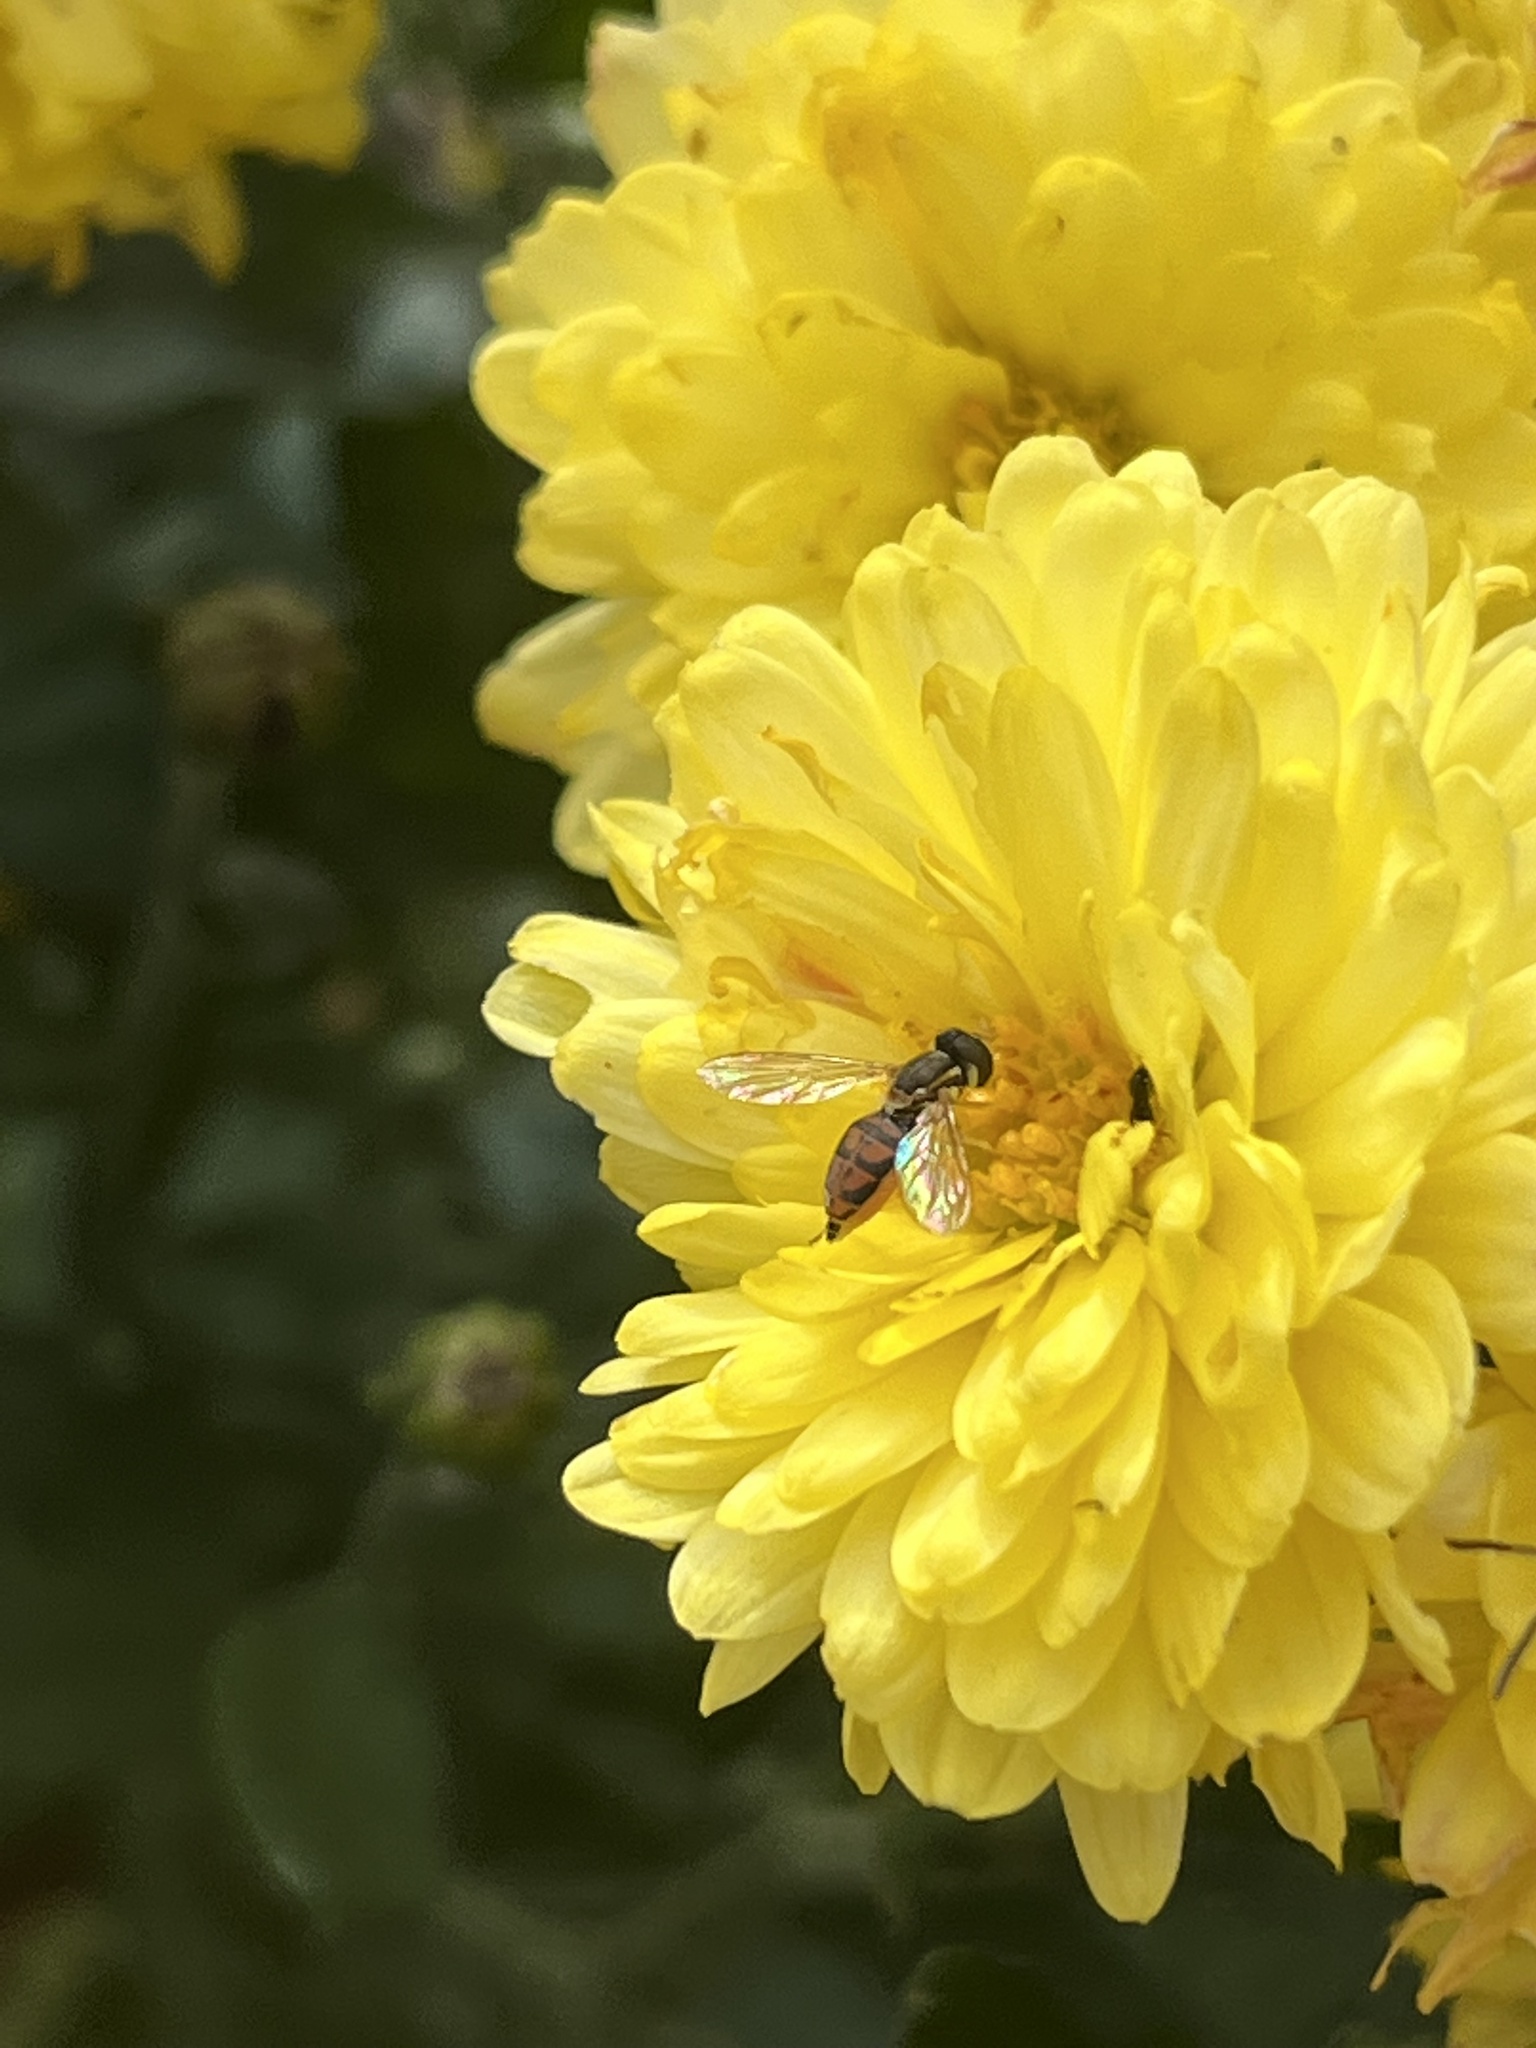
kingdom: Animalia
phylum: Arthropoda
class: Insecta
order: Diptera
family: Syrphidae
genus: Toxomerus
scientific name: Toxomerus marginatus
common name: Syrphid fly
